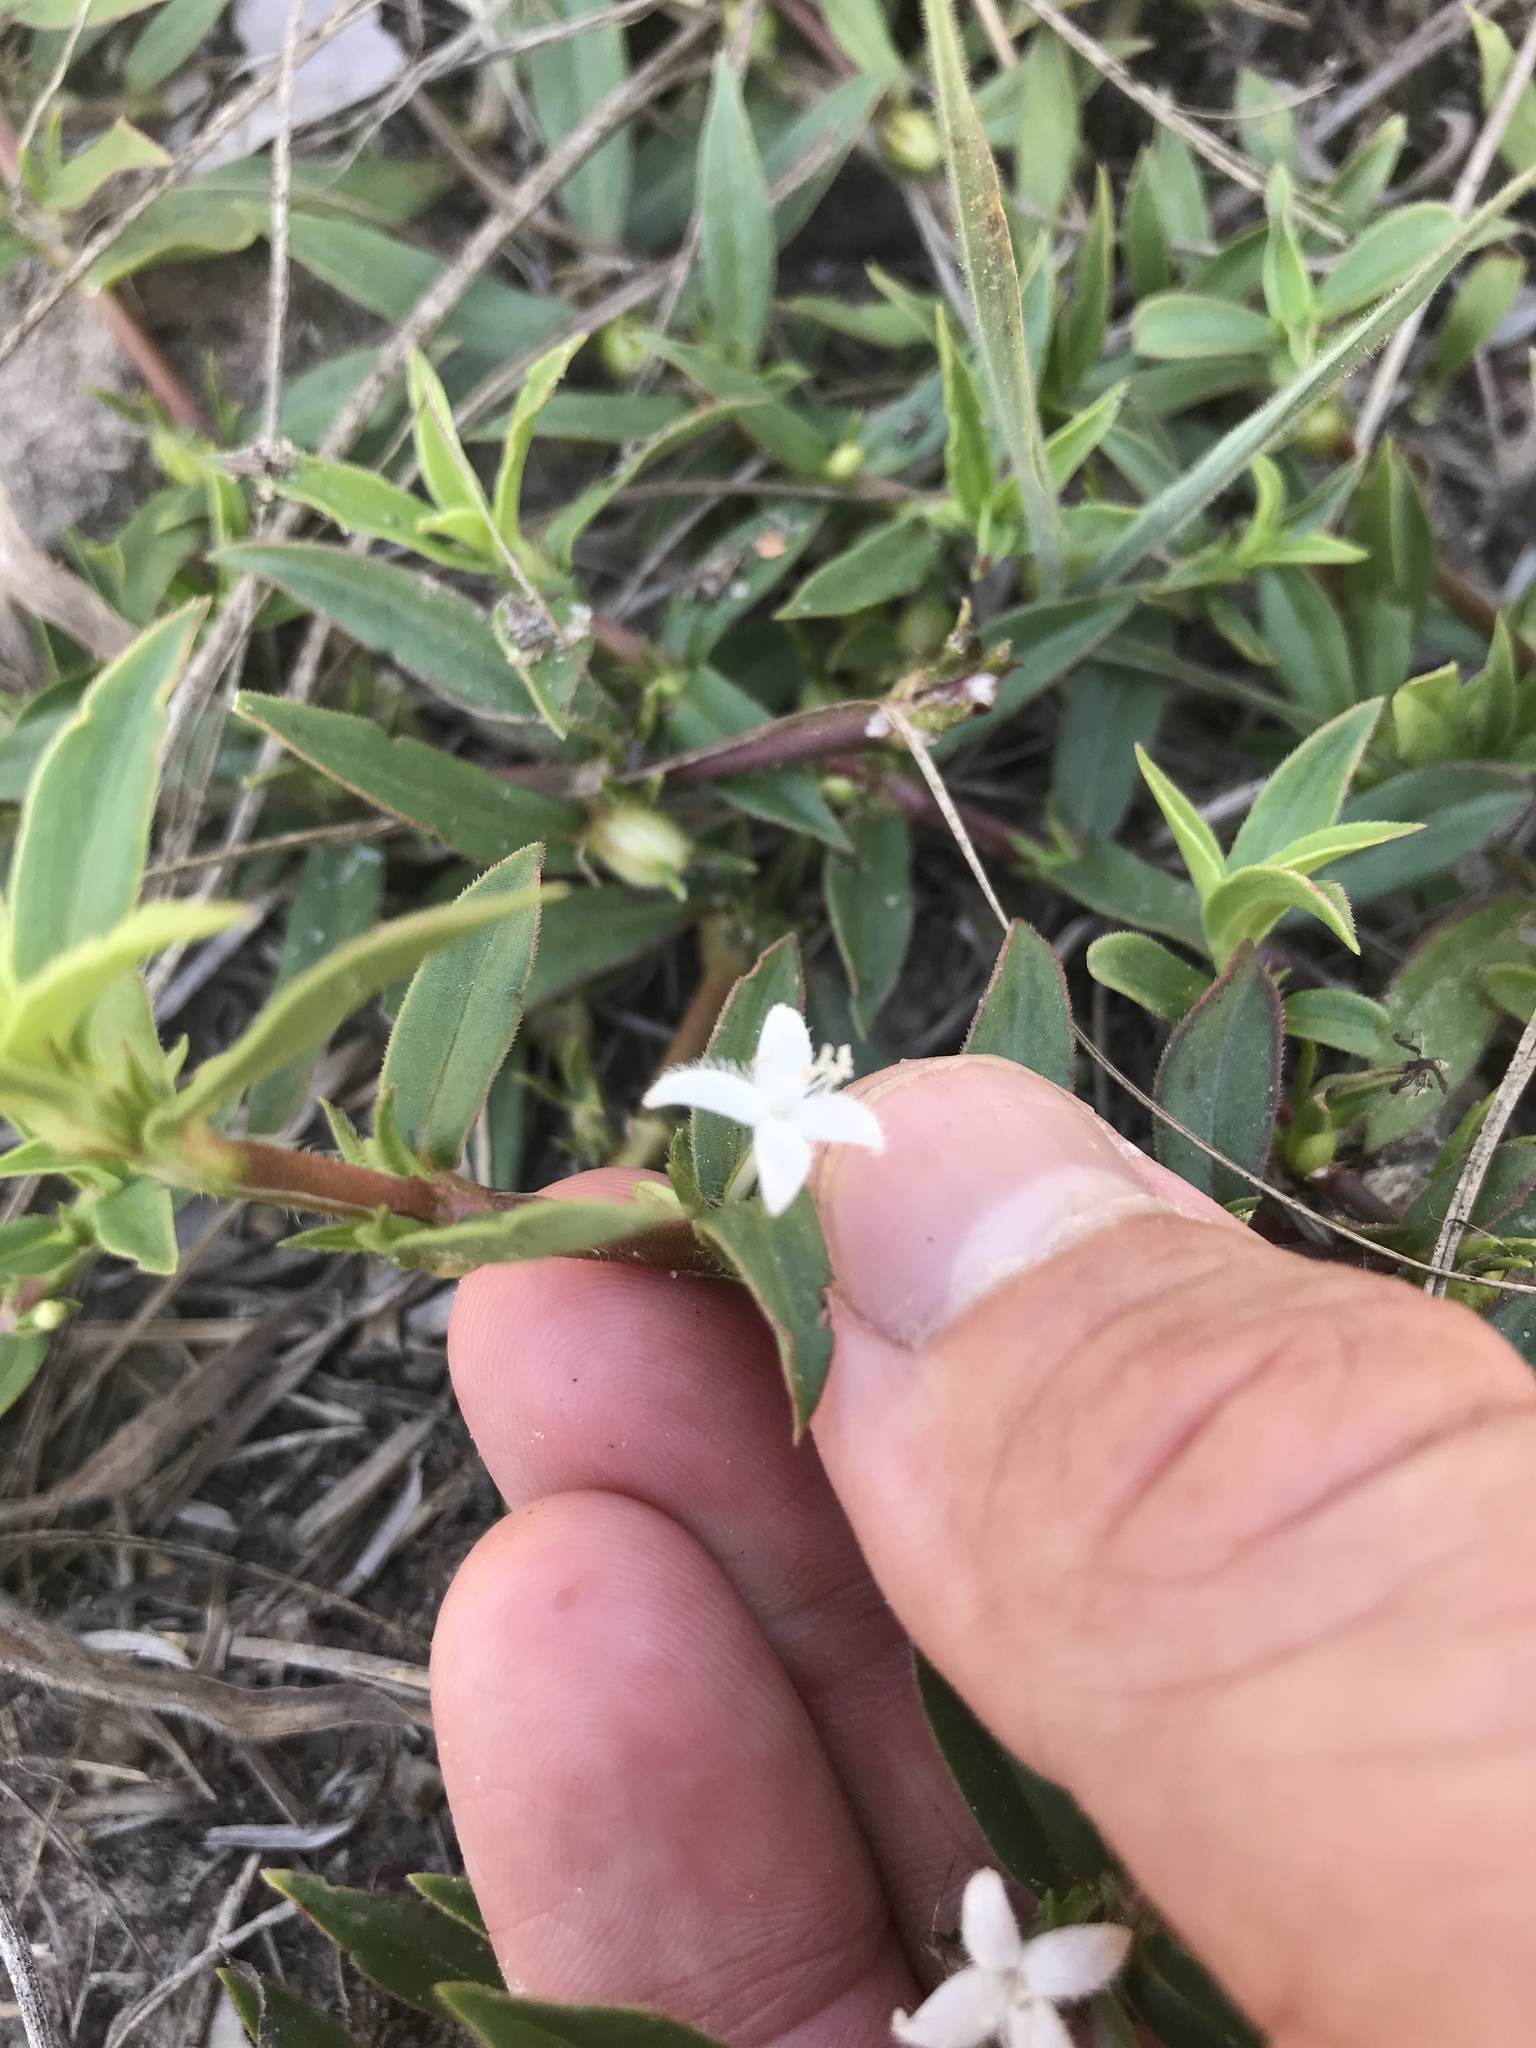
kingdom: Plantae
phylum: Tracheophyta
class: Magnoliopsida
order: Gentianales
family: Rubiaceae
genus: Diodia
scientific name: Diodia virginiana
